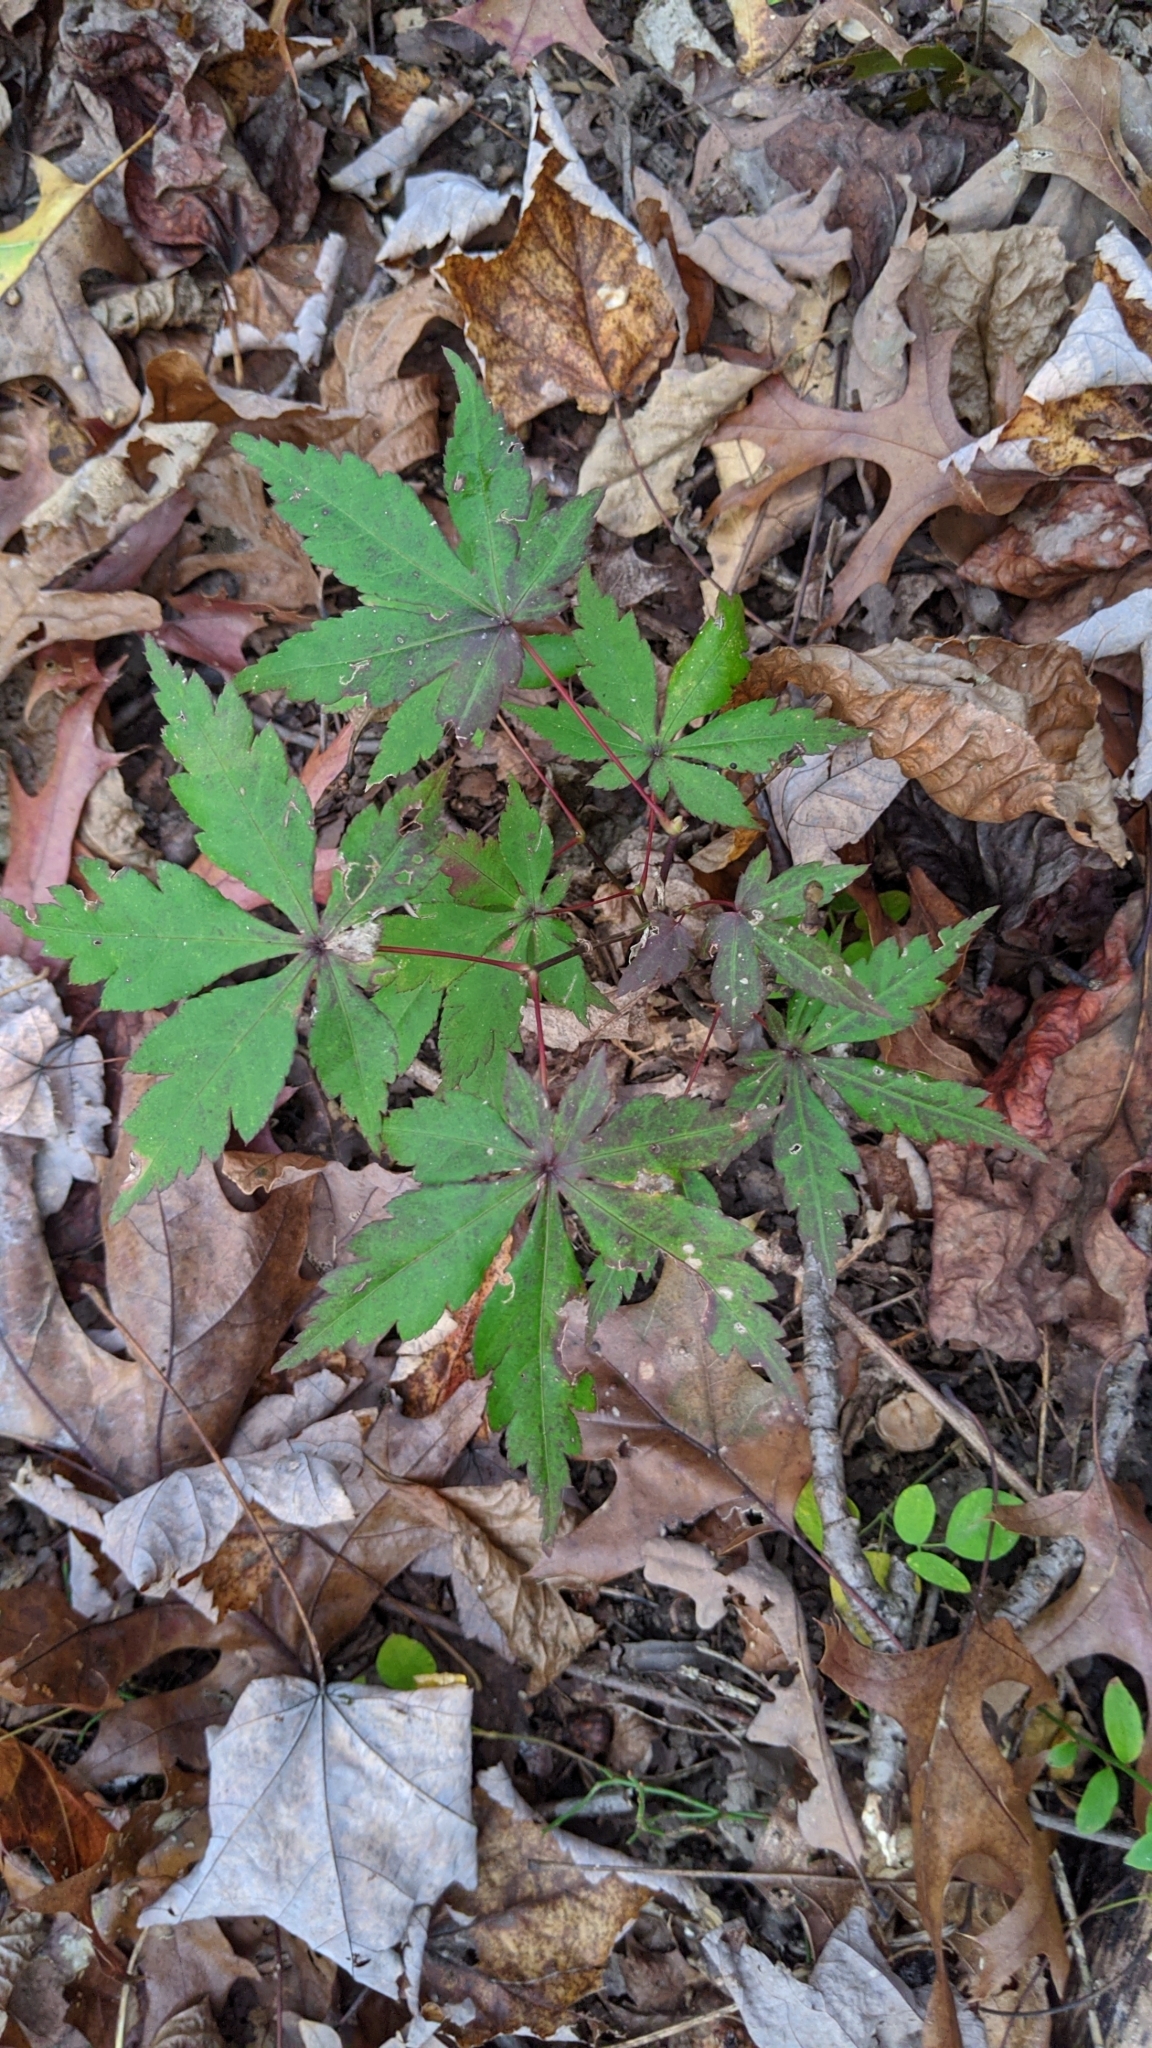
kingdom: Plantae
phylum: Tracheophyta
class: Magnoliopsida
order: Sapindales
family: Sapindaceae
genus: Acer
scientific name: Acer palmatum
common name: Japanese maple
